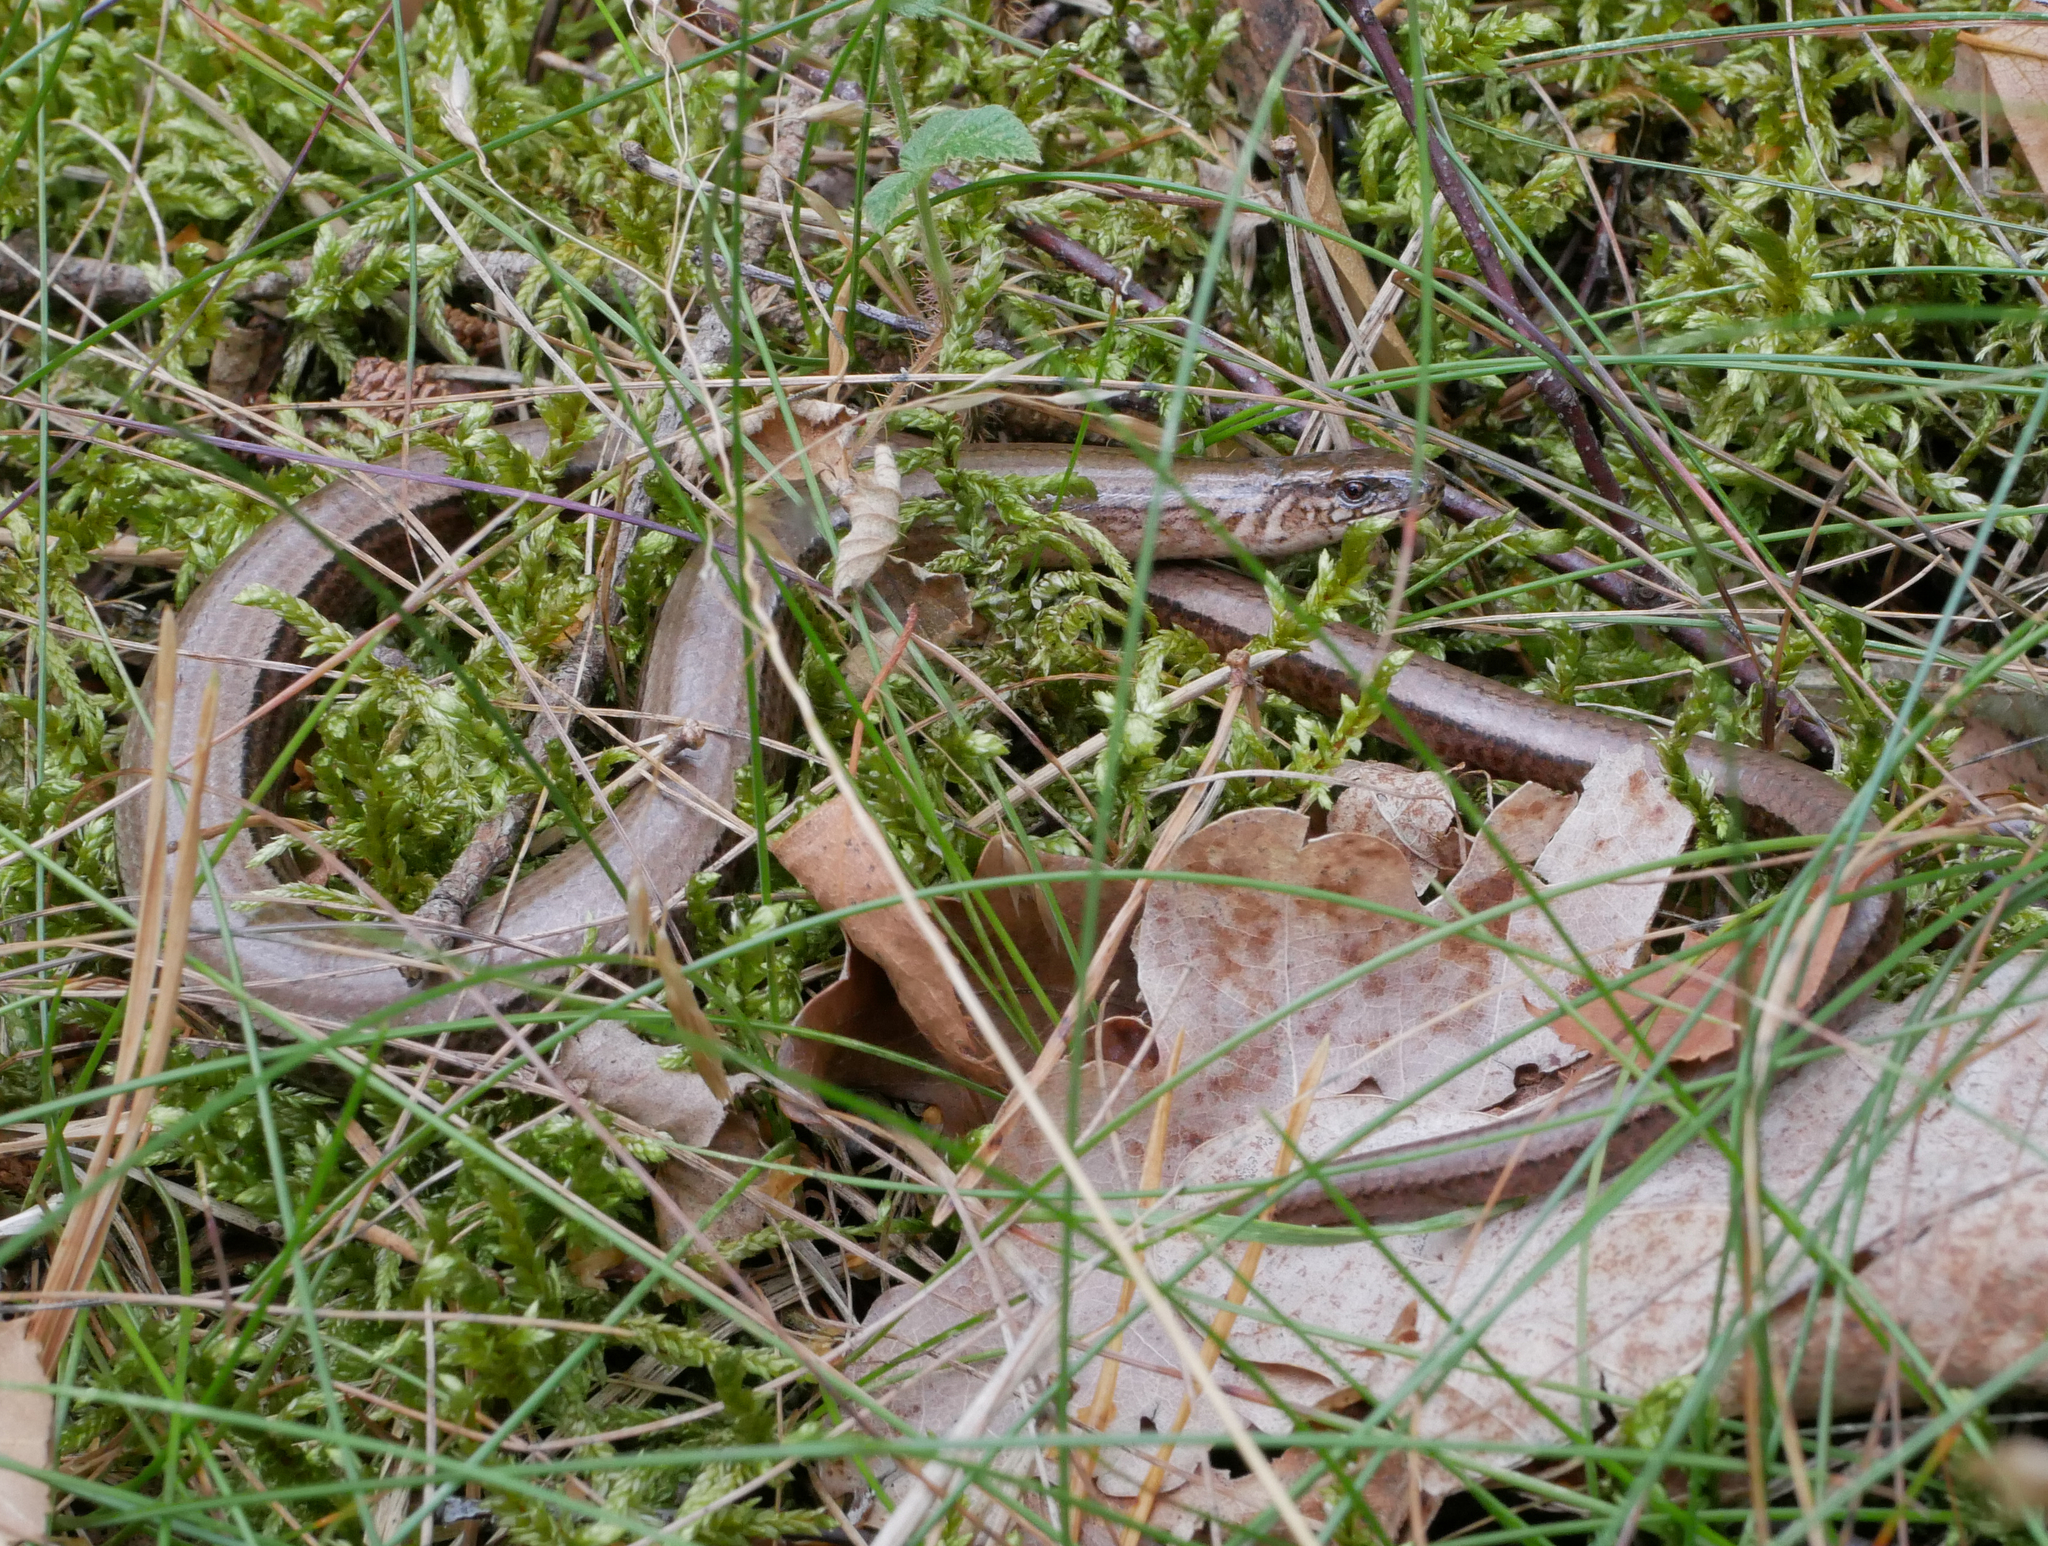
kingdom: Animalia
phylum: Chordata
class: Squamata
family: Anguidae
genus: Anguis
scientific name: Anguis fragilis
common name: Slow worm
